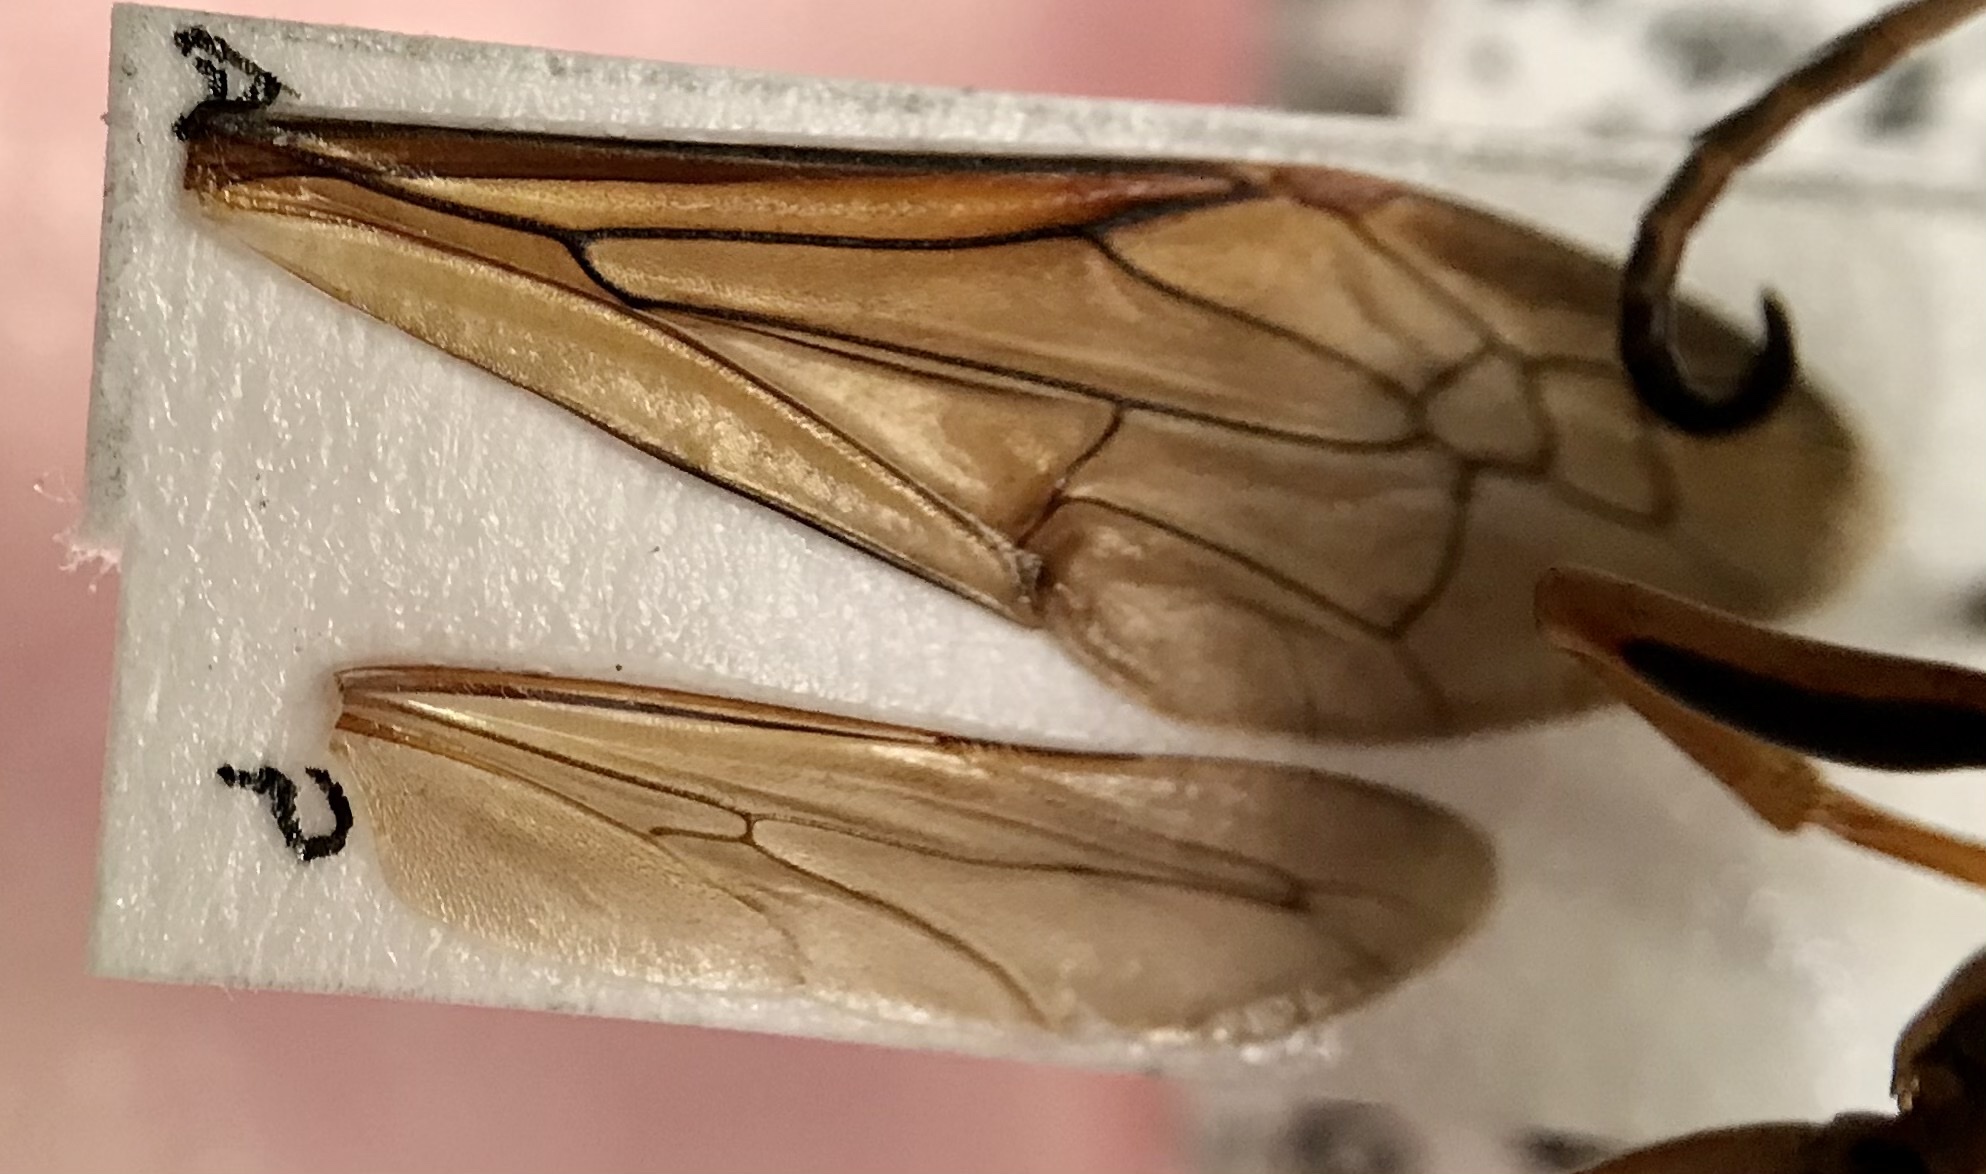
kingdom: Animalia
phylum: Arthropoda
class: Insecta
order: Hymenoptera
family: Eumenidae
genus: Polistes
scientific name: Polistes fuscatus
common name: Dark paper wasp
